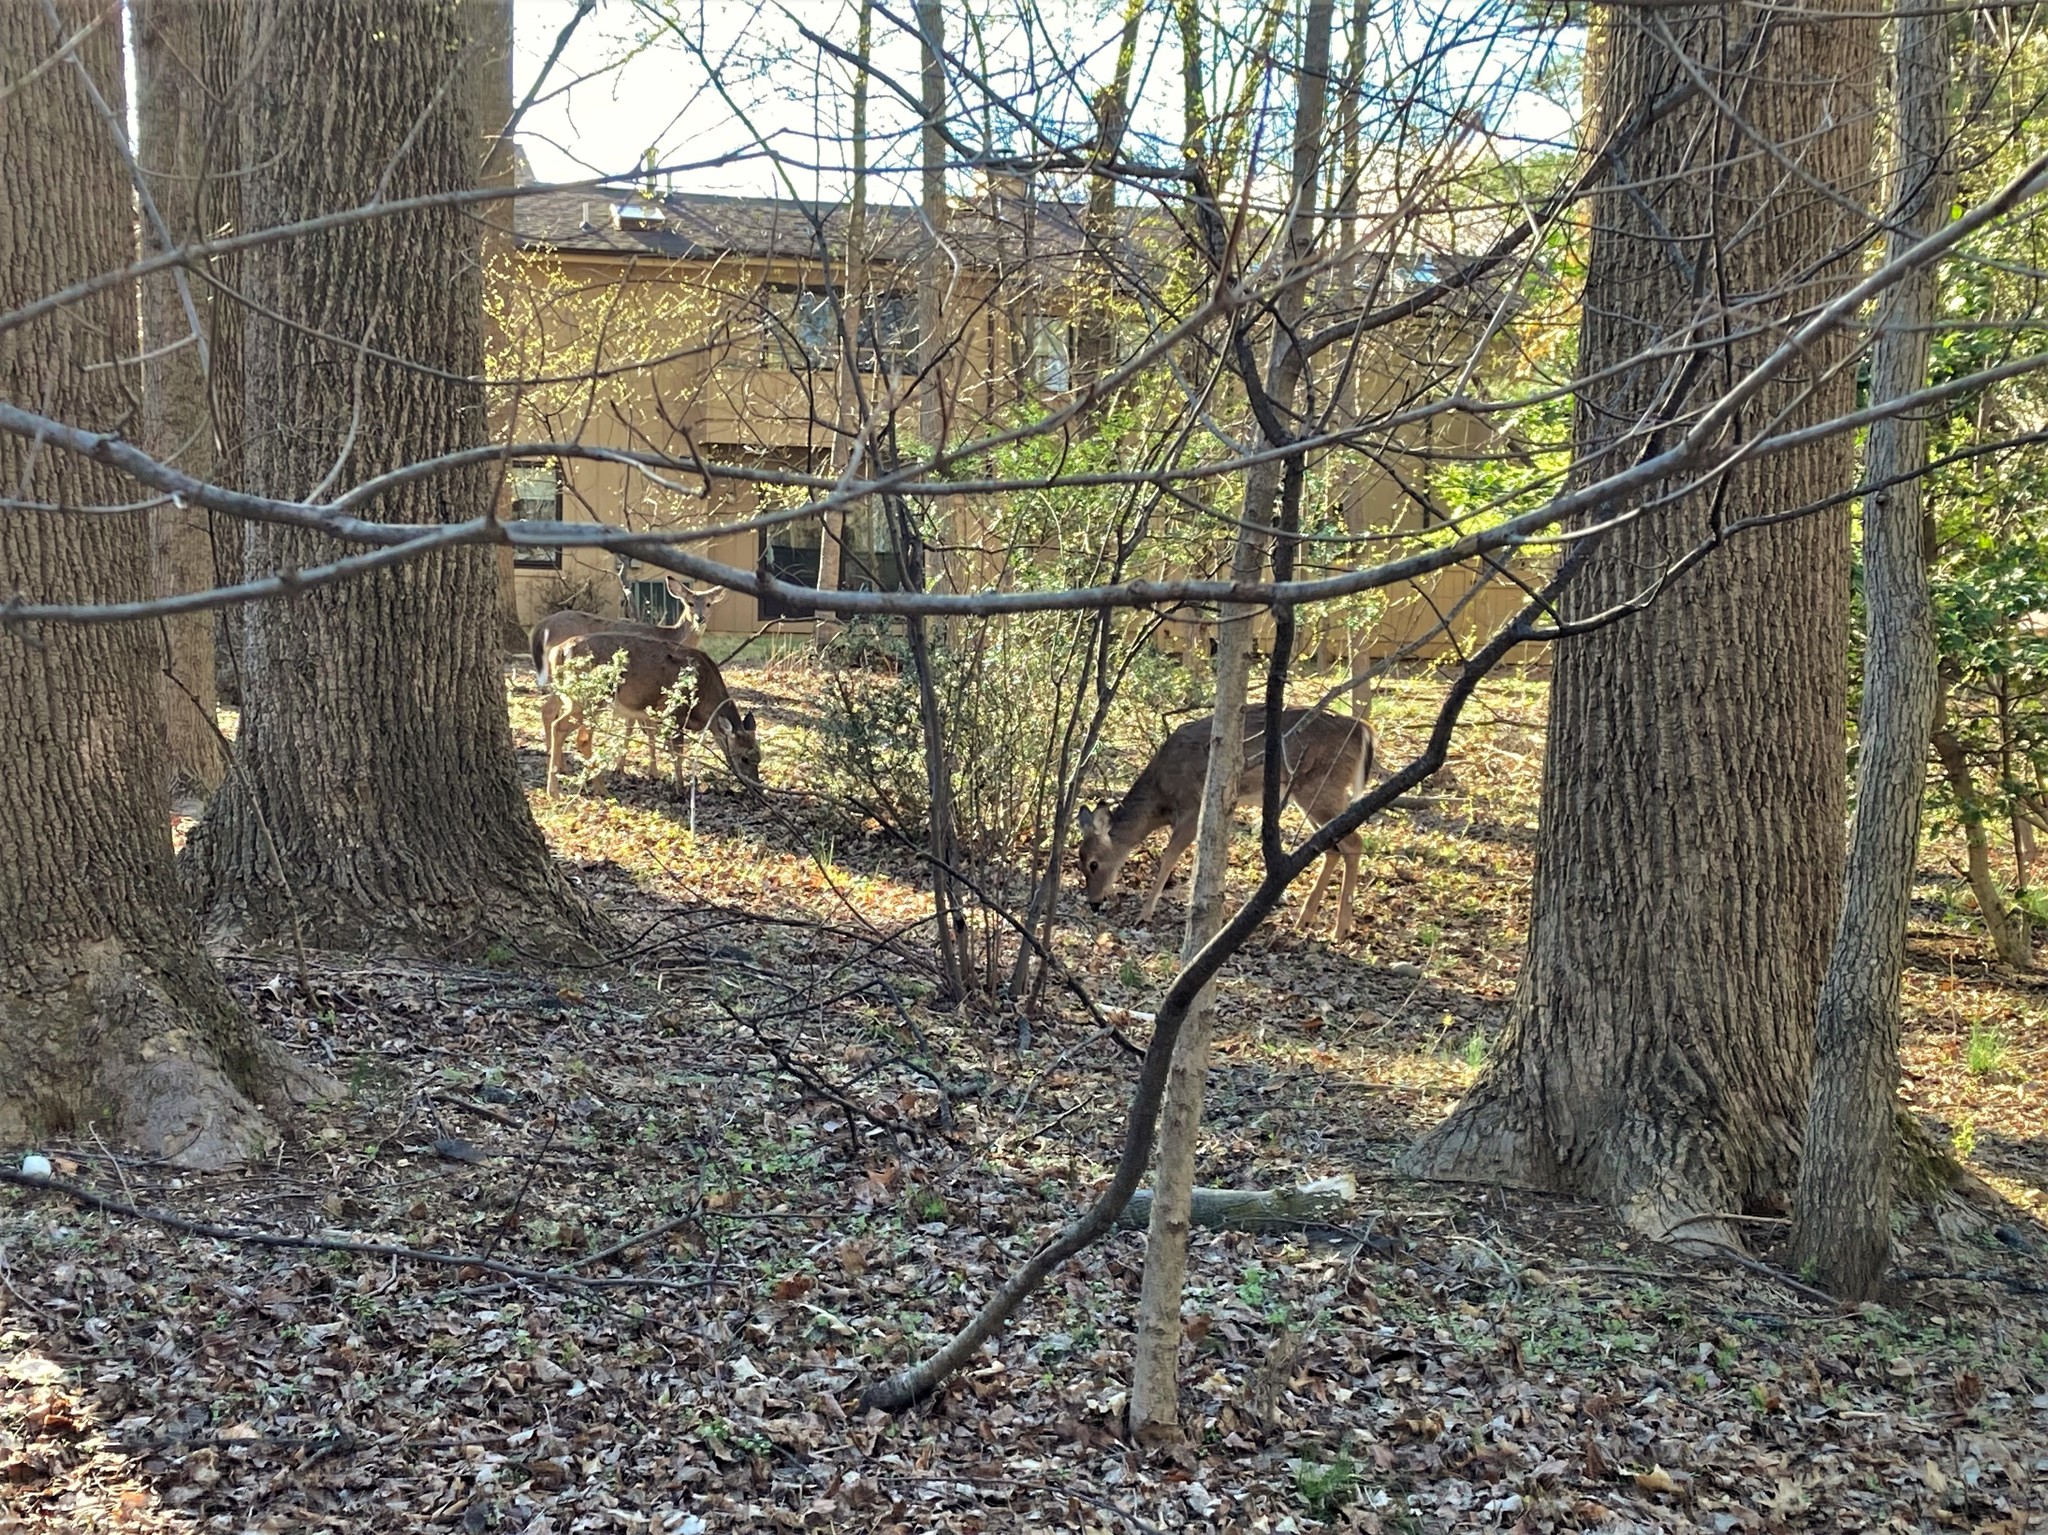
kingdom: Animalia
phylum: Chordata
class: Mammalia
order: Artiodactyla
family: Cervidae
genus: Odocoileus
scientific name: Odocoileus virginianus
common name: White-tailed deer
